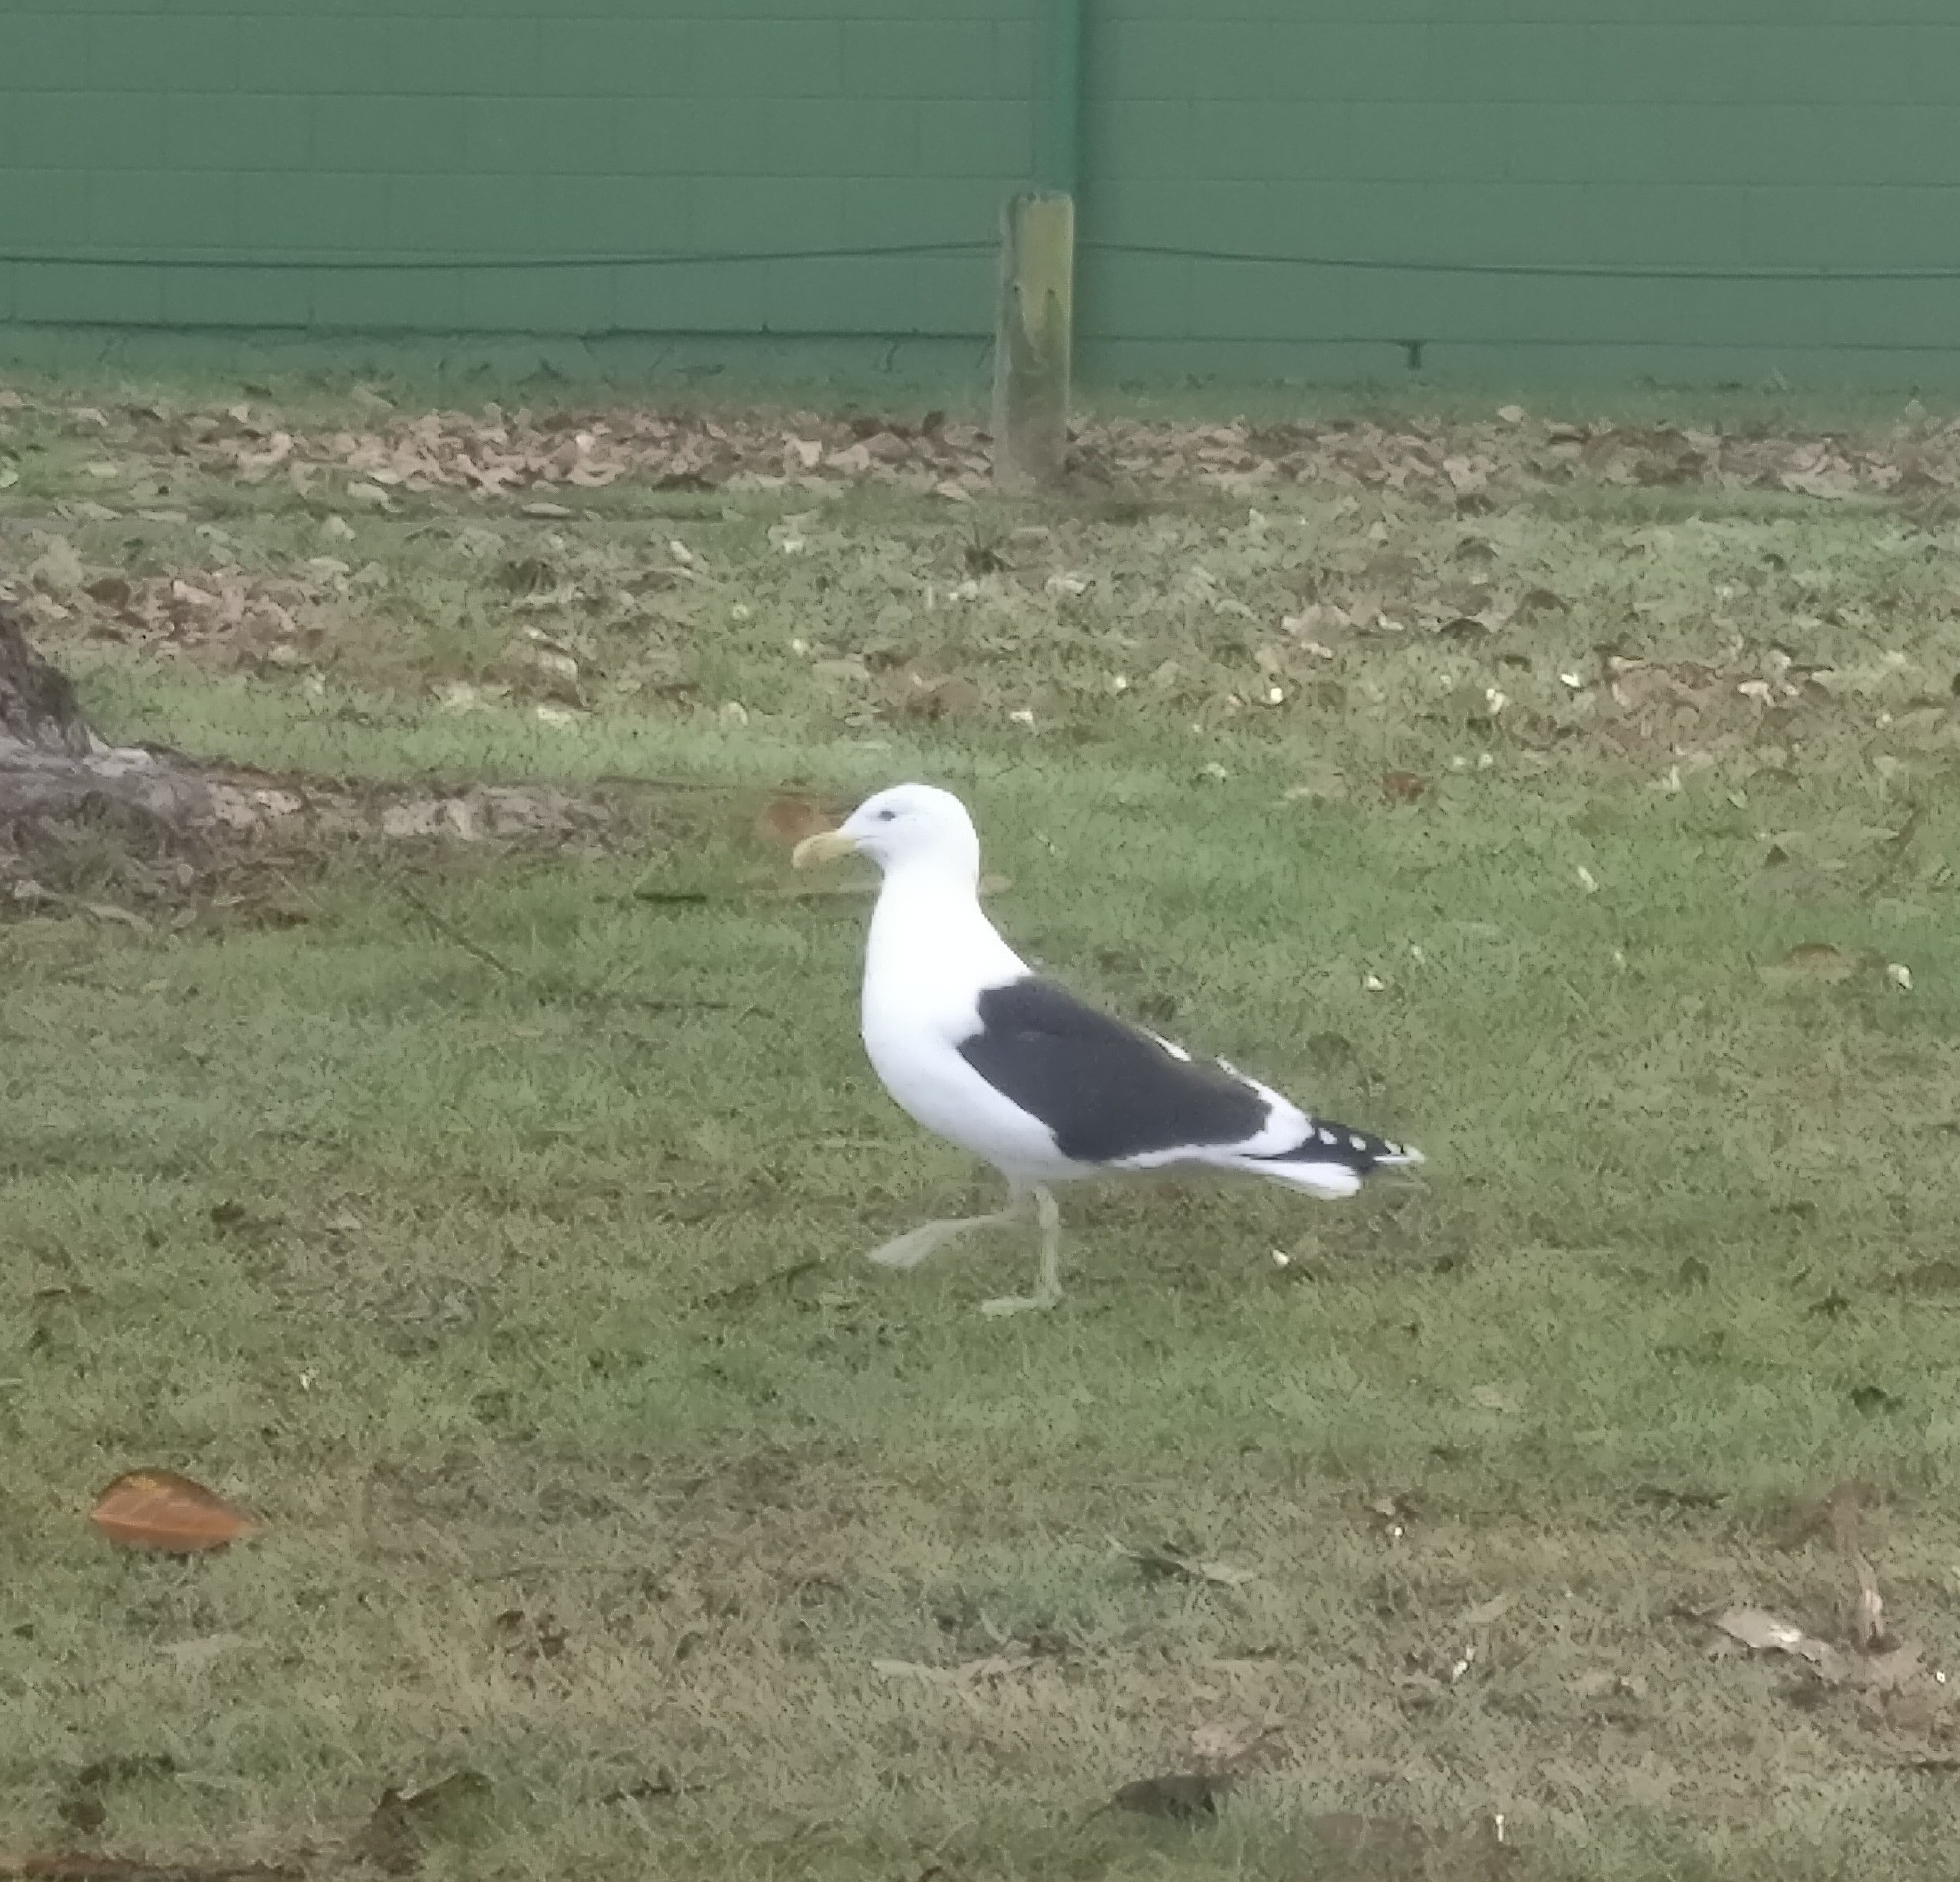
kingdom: Animalia
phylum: Chordata
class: Aves
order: Charadriiformes
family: Laridae
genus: Larus
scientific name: Larus dominicanus
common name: Kelp gull
